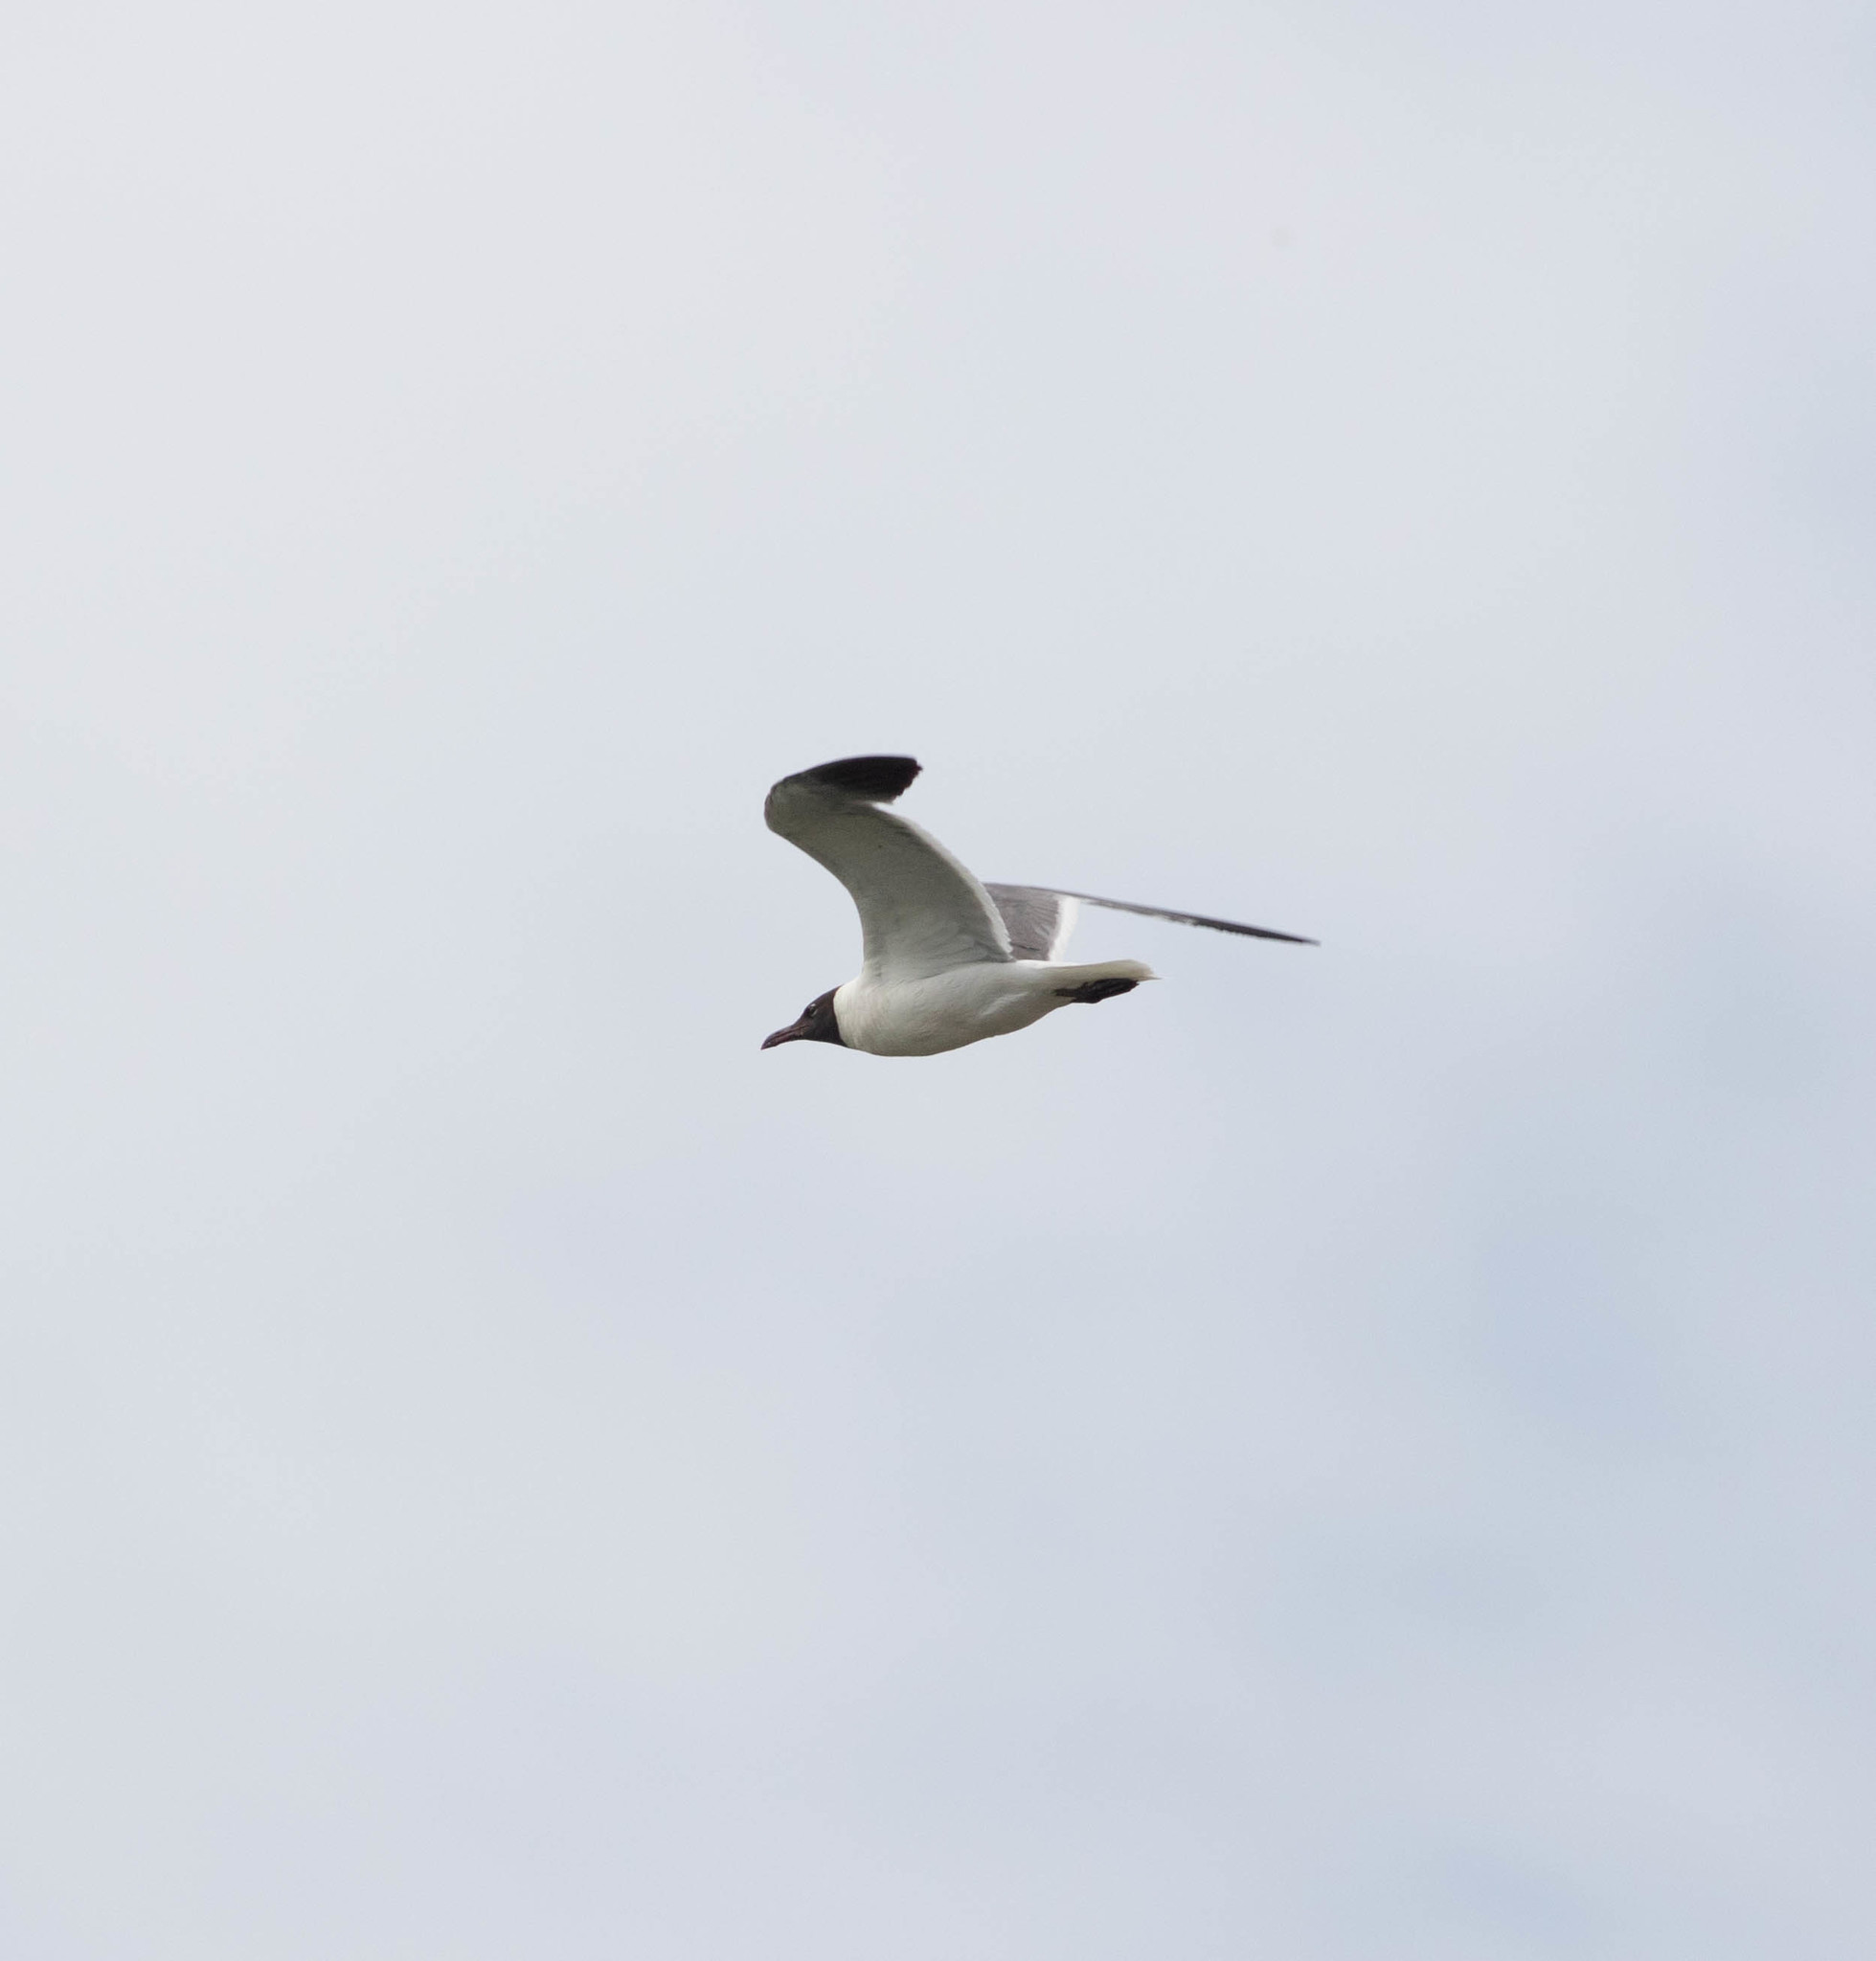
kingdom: Animalia
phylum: Chordata
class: Aves
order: Charadriiformes
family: Laridae
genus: Leucophaeus
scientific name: Leucophaeus atricilla
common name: Laughing gull
